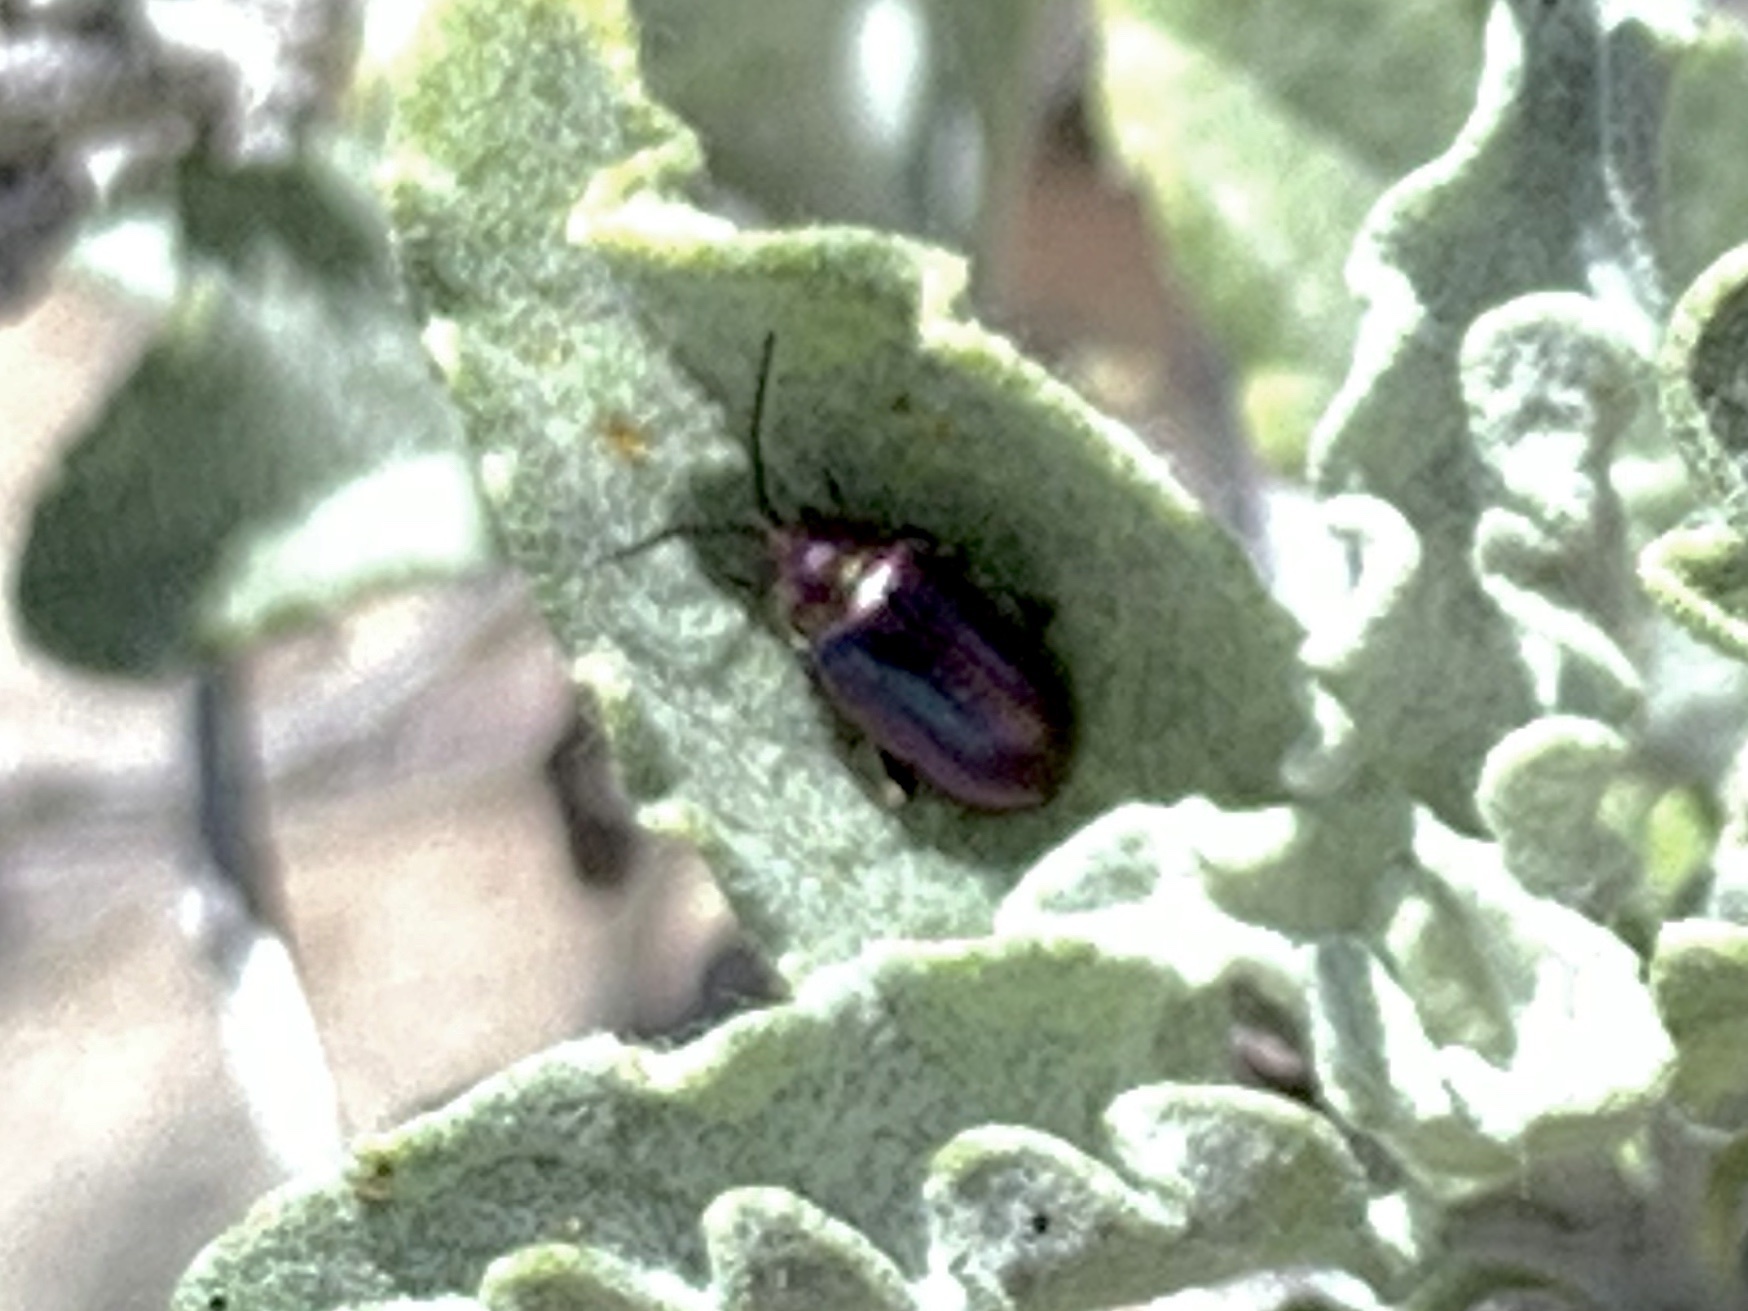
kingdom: Animalia
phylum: Arthropoda
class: Insecta
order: Coleoptera
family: Chrysomelidae
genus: Altica
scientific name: Altica torquata
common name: Leaf beetle
